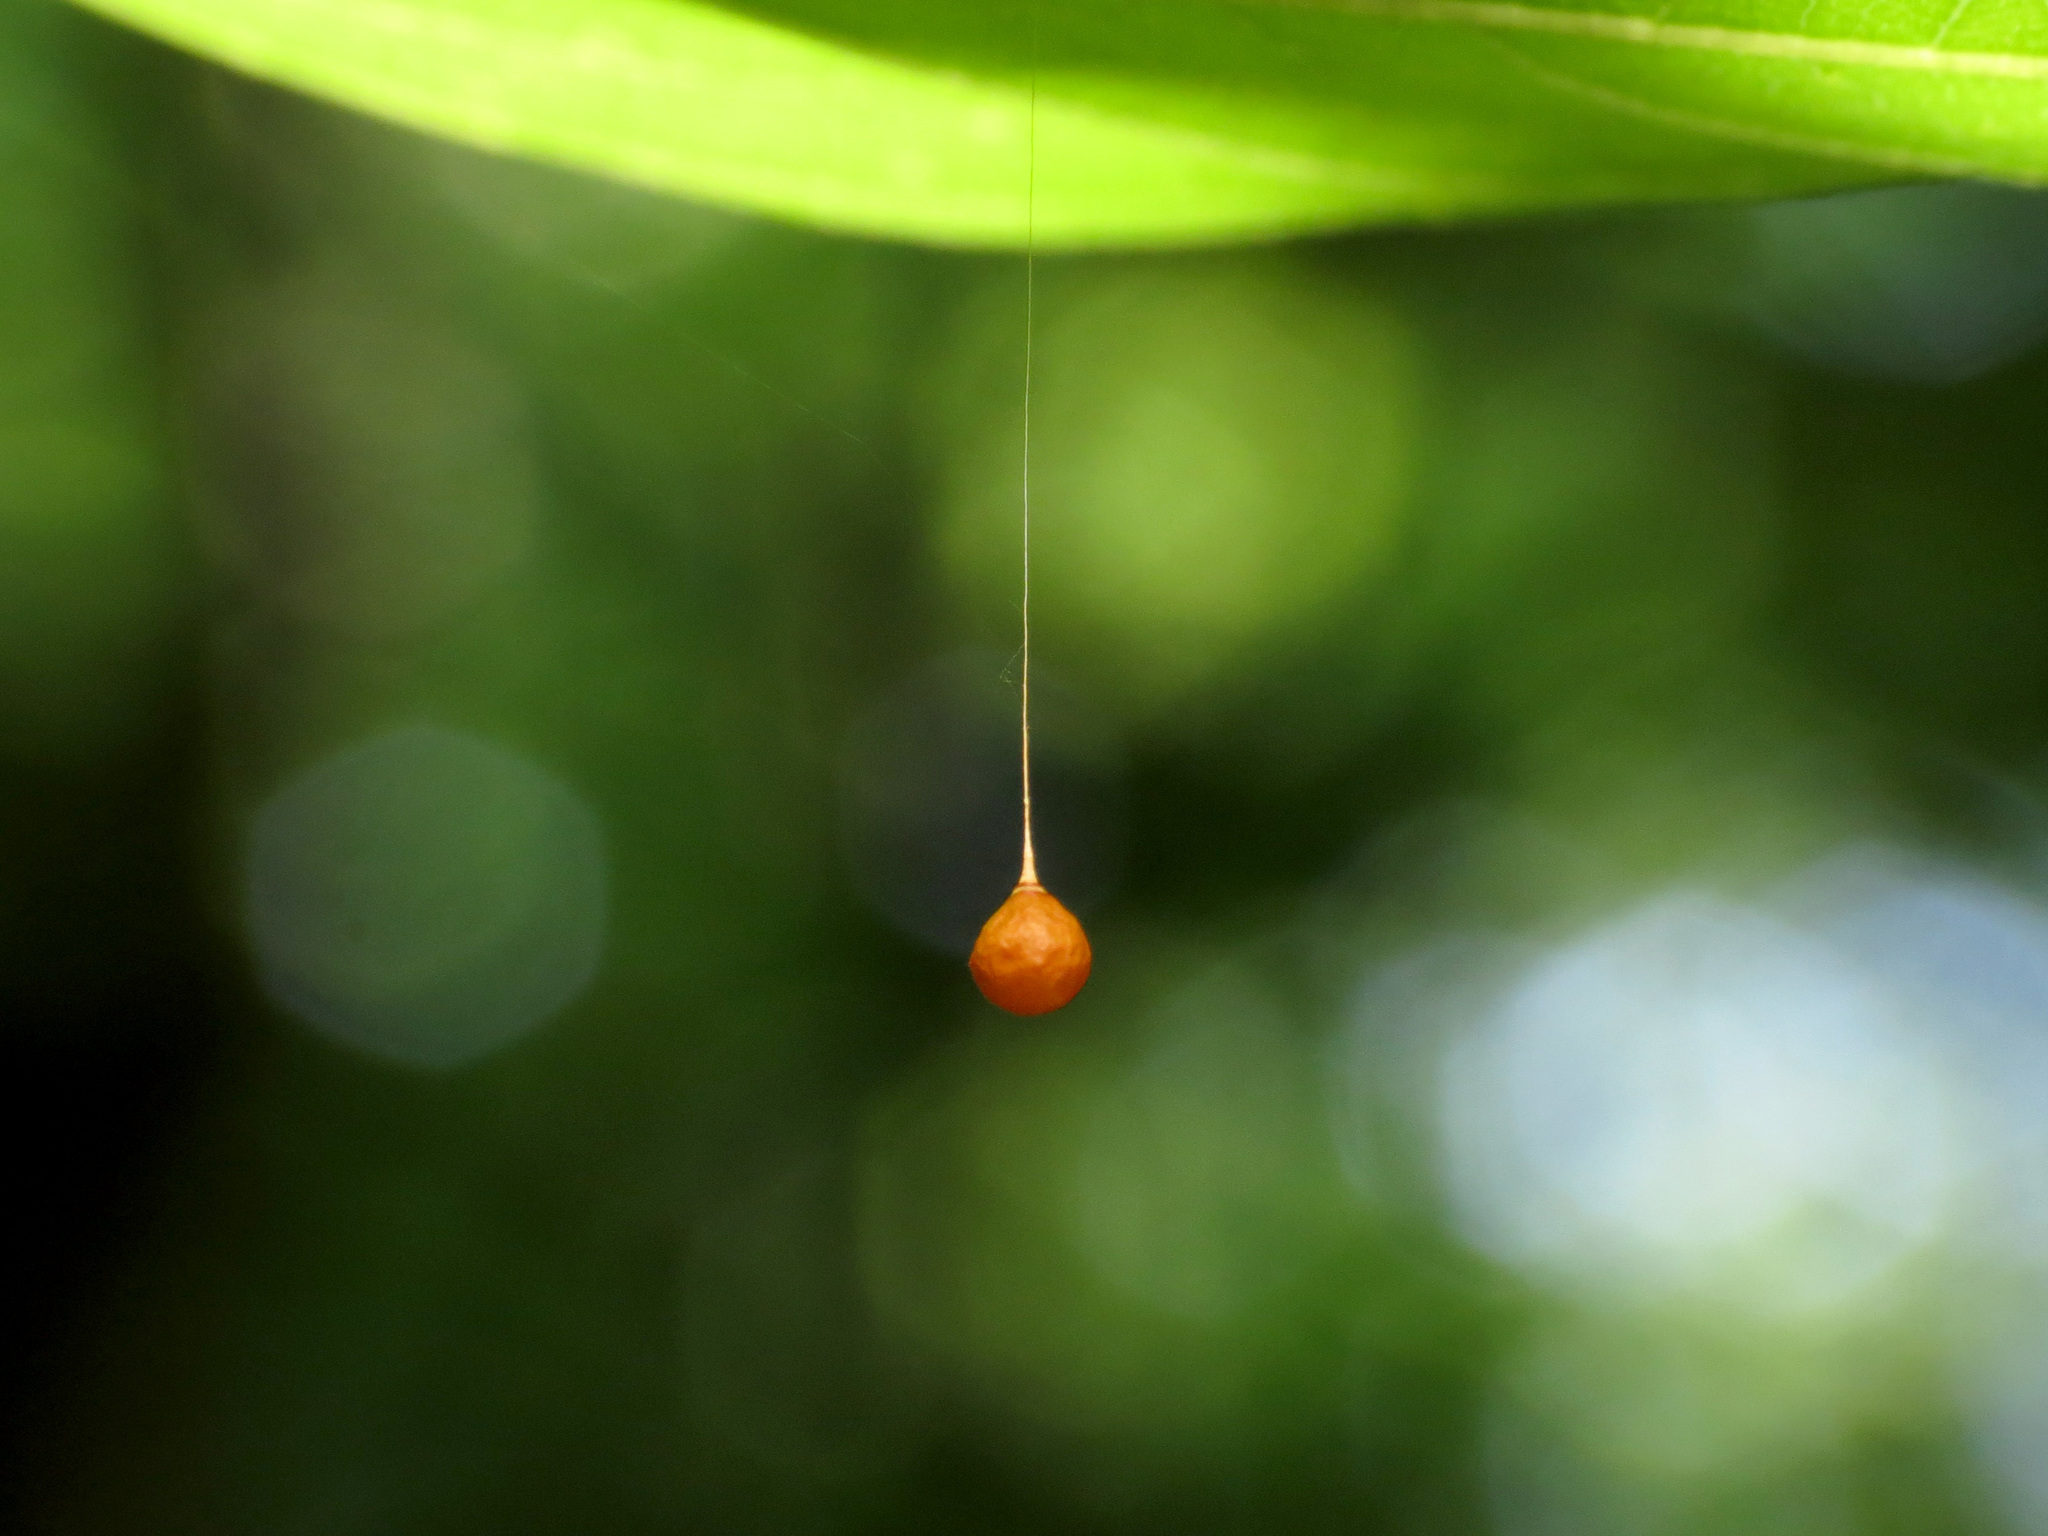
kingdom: Animalia
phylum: Arthropoda
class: Arachnida
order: Araneae
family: Theridiosomatidae
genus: Theridiosoma
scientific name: Theridiosoma gemmosum
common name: Ray spider
